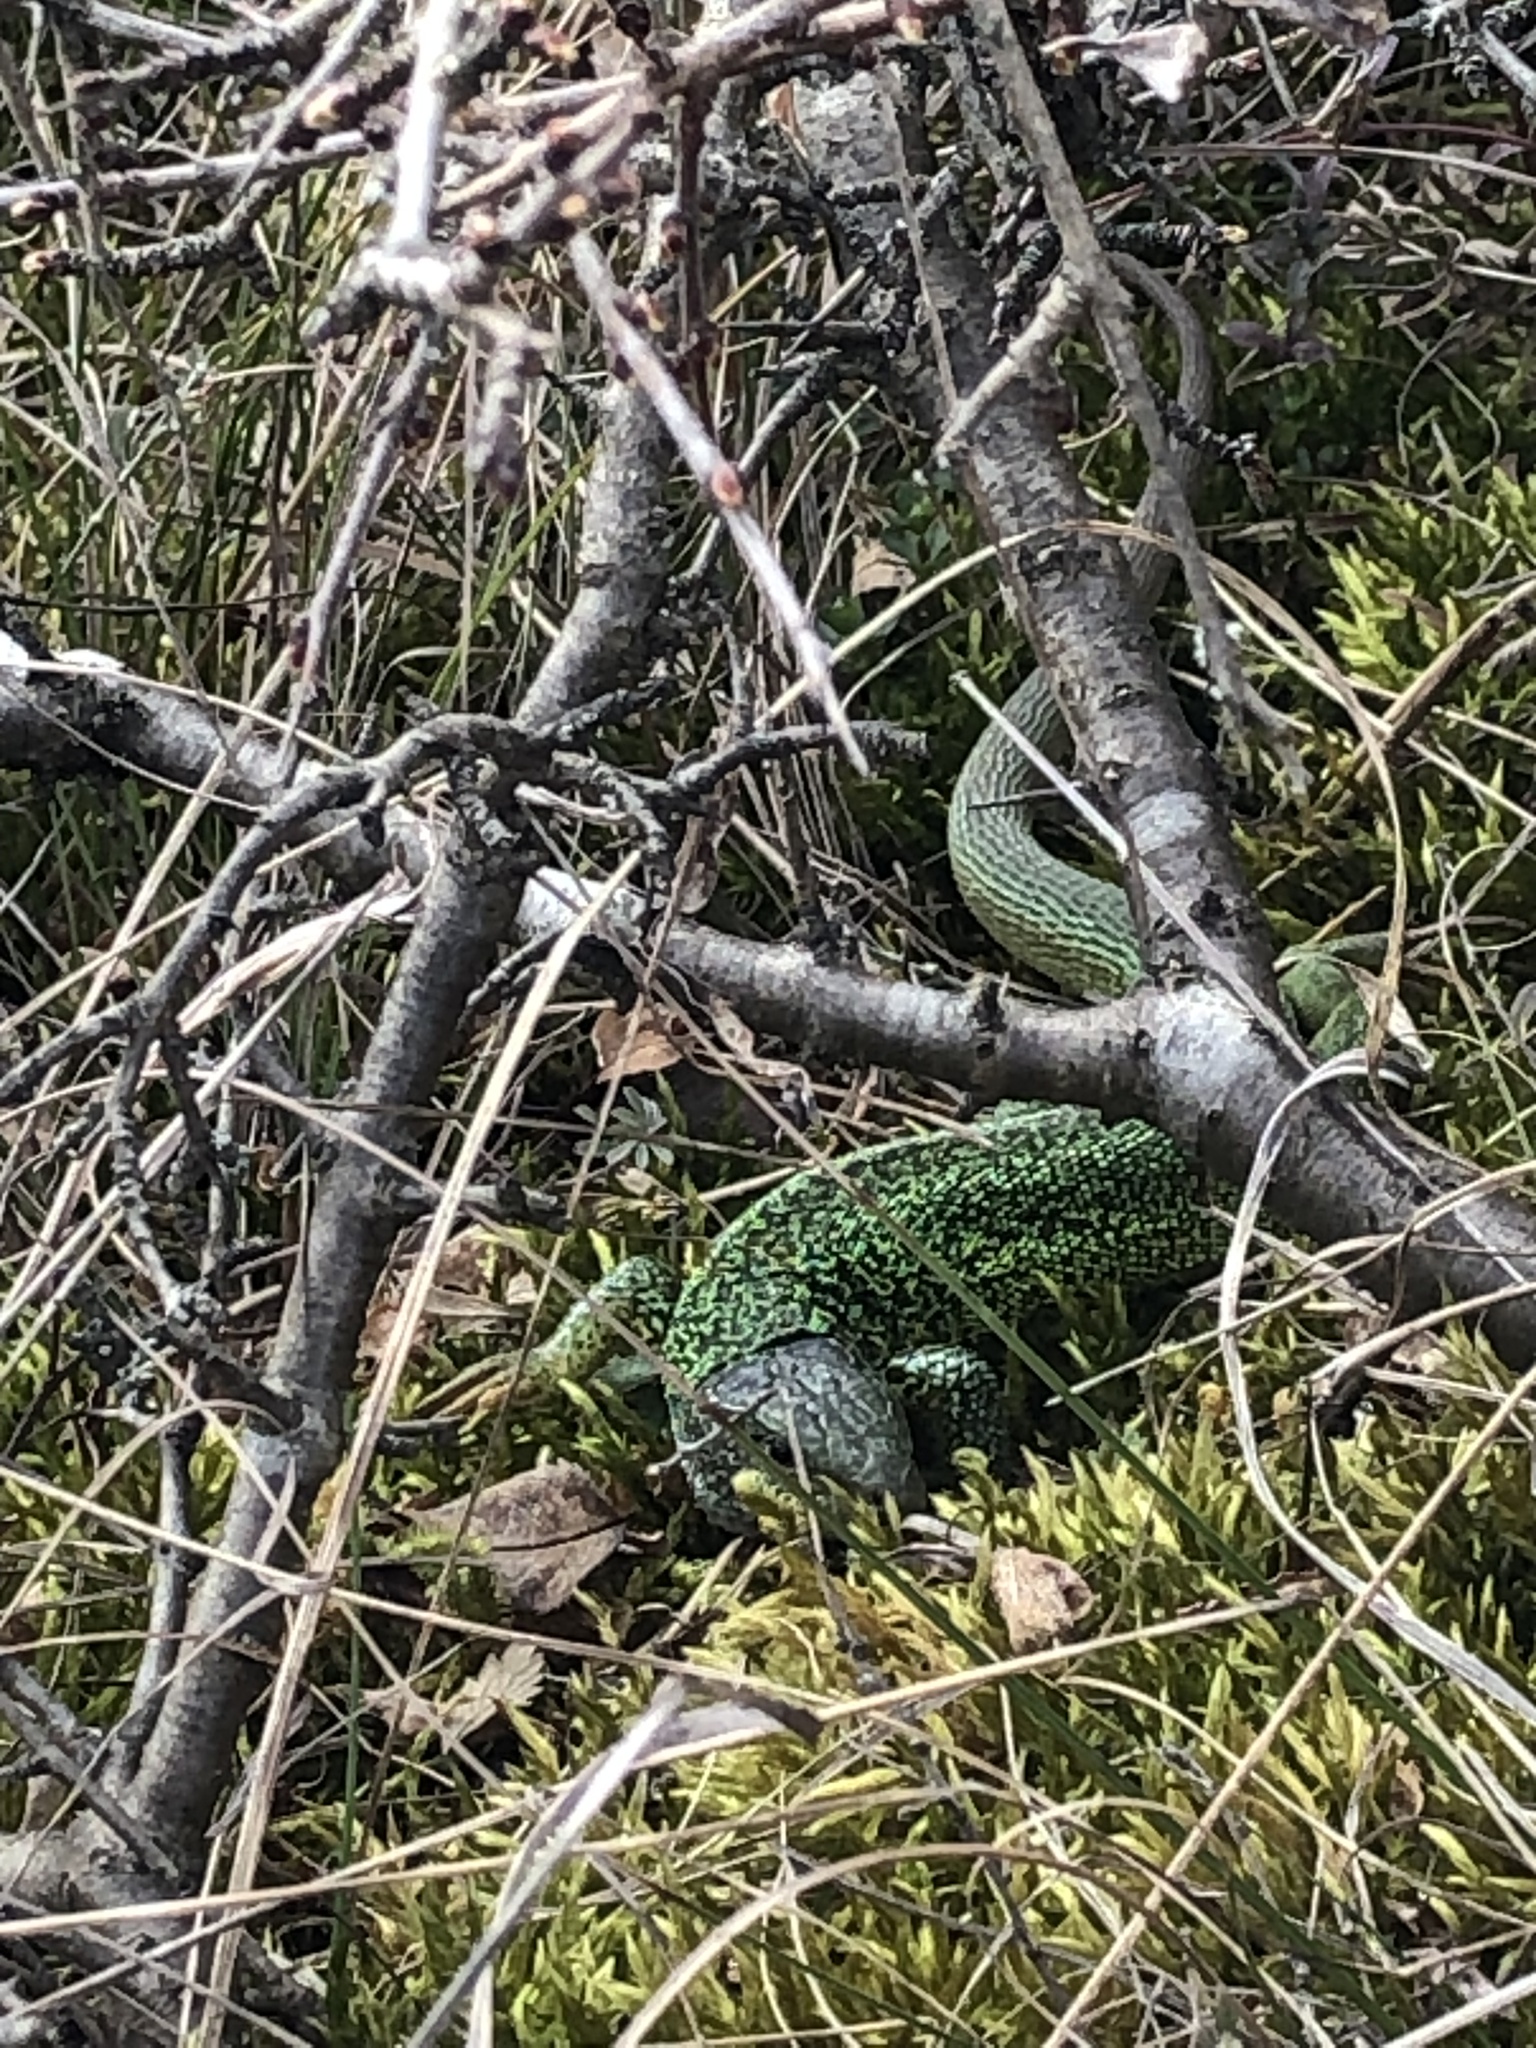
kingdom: Animalia
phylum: Chordata
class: Squamata
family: Lacertidae
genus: Lacerta
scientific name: Lacerta viridis
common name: European green lizard
